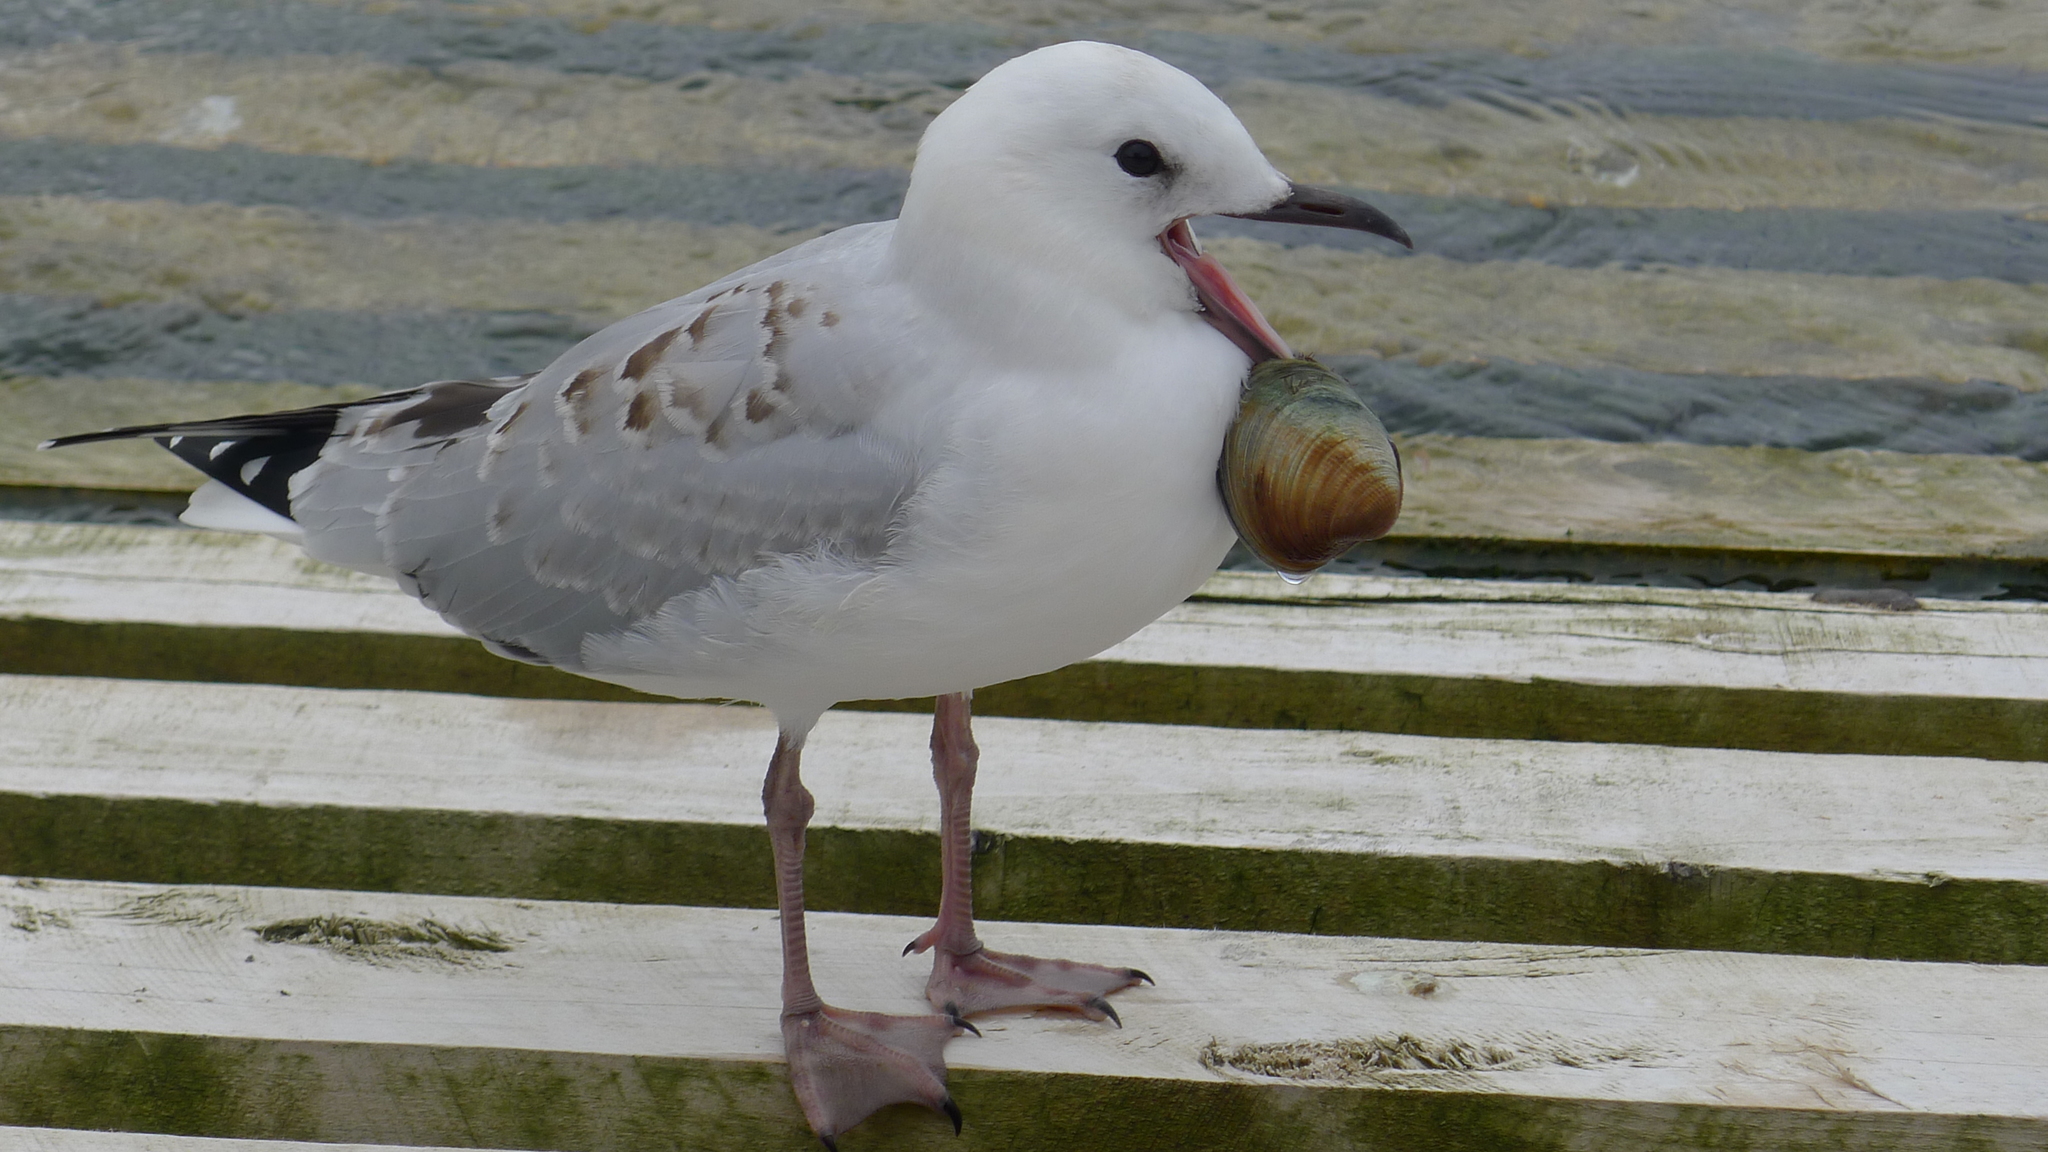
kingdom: Animalia
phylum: Chordata
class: Aves
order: Charadriiformes
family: Laridae
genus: Chroicocephalus
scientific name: Chroicocephalus novaehollandiae
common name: Silver gull
